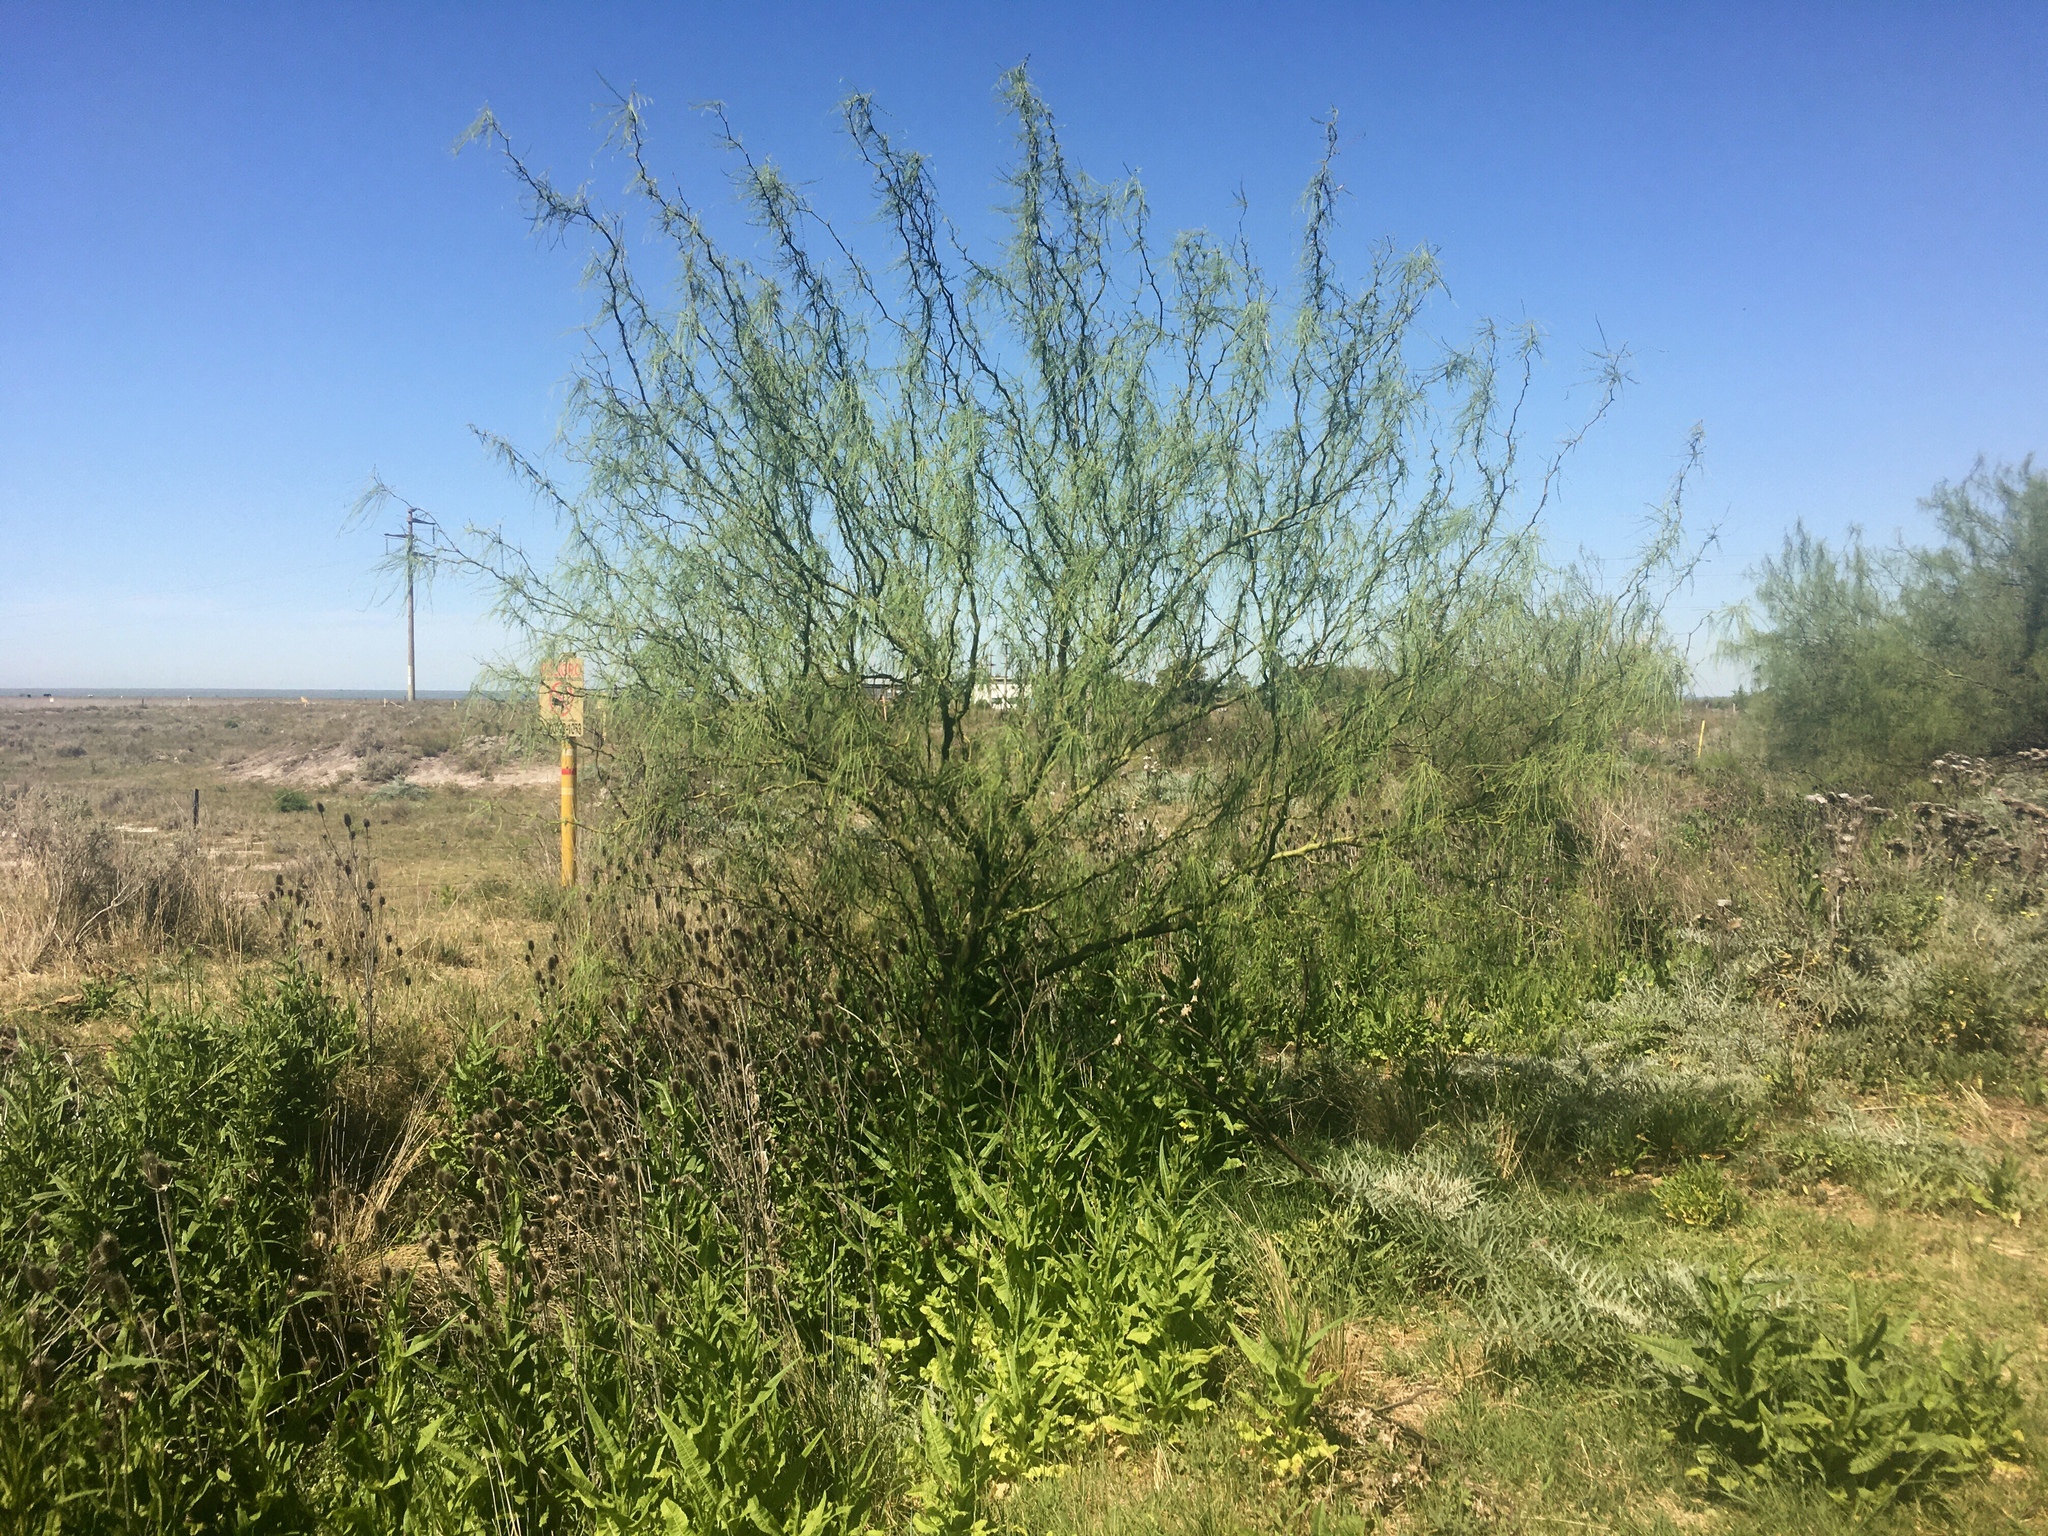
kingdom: Plantae
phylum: Tracheophyta
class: Magnoliopsida
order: Fabales
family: Fabaceae
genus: Parkinsonia
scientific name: Parkinsonia aculeata
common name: Jerusalem thorn
